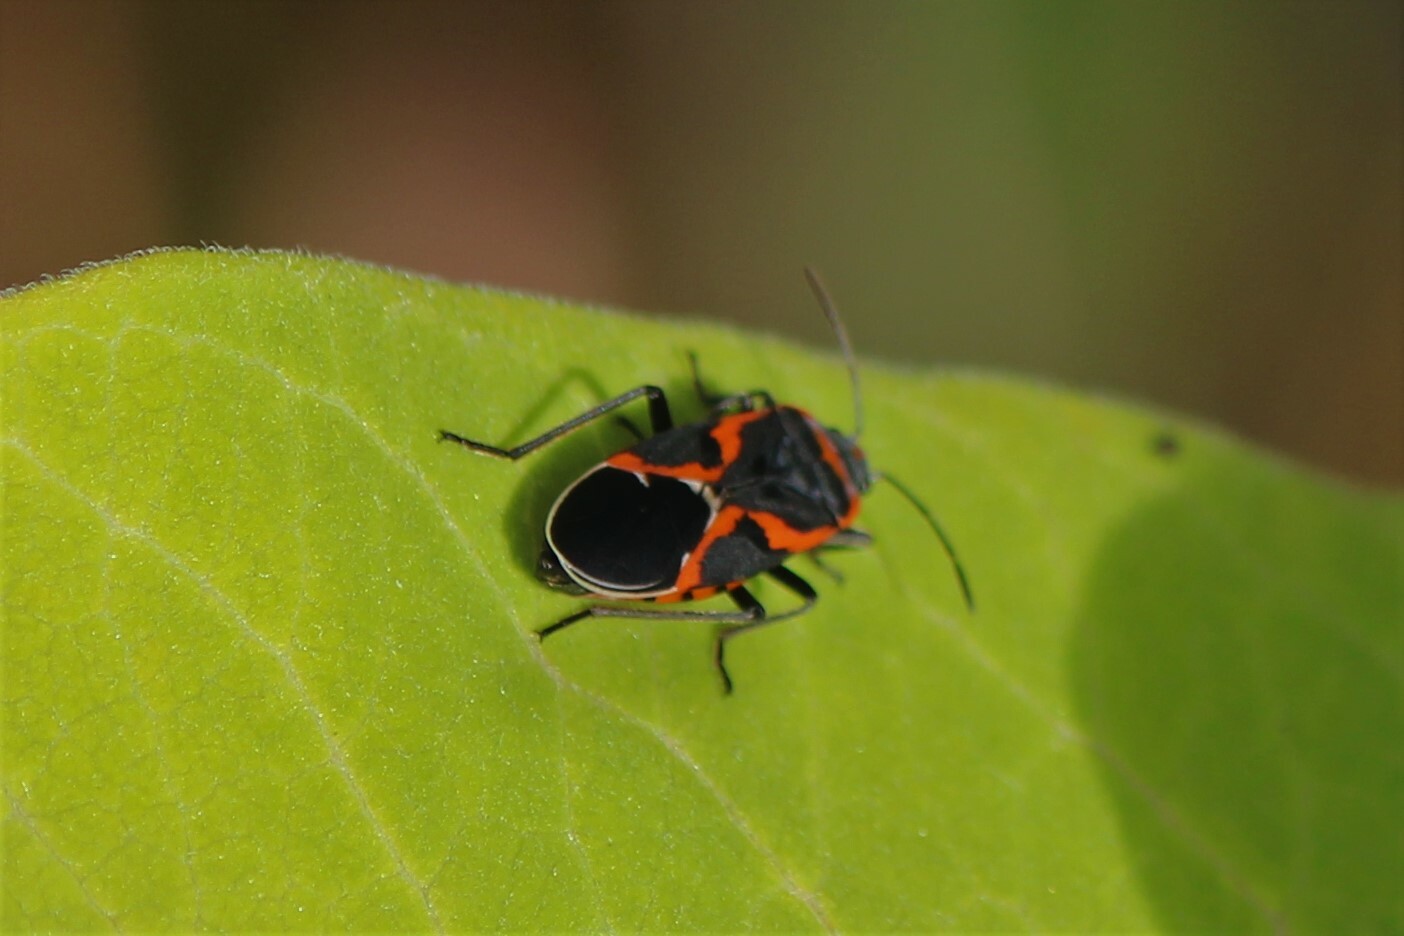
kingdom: Animalia
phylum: Arthropoda
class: Insecta
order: Hemiptera
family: Lygaeidae
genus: Lygaeus
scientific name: Lygaeus kalmii
